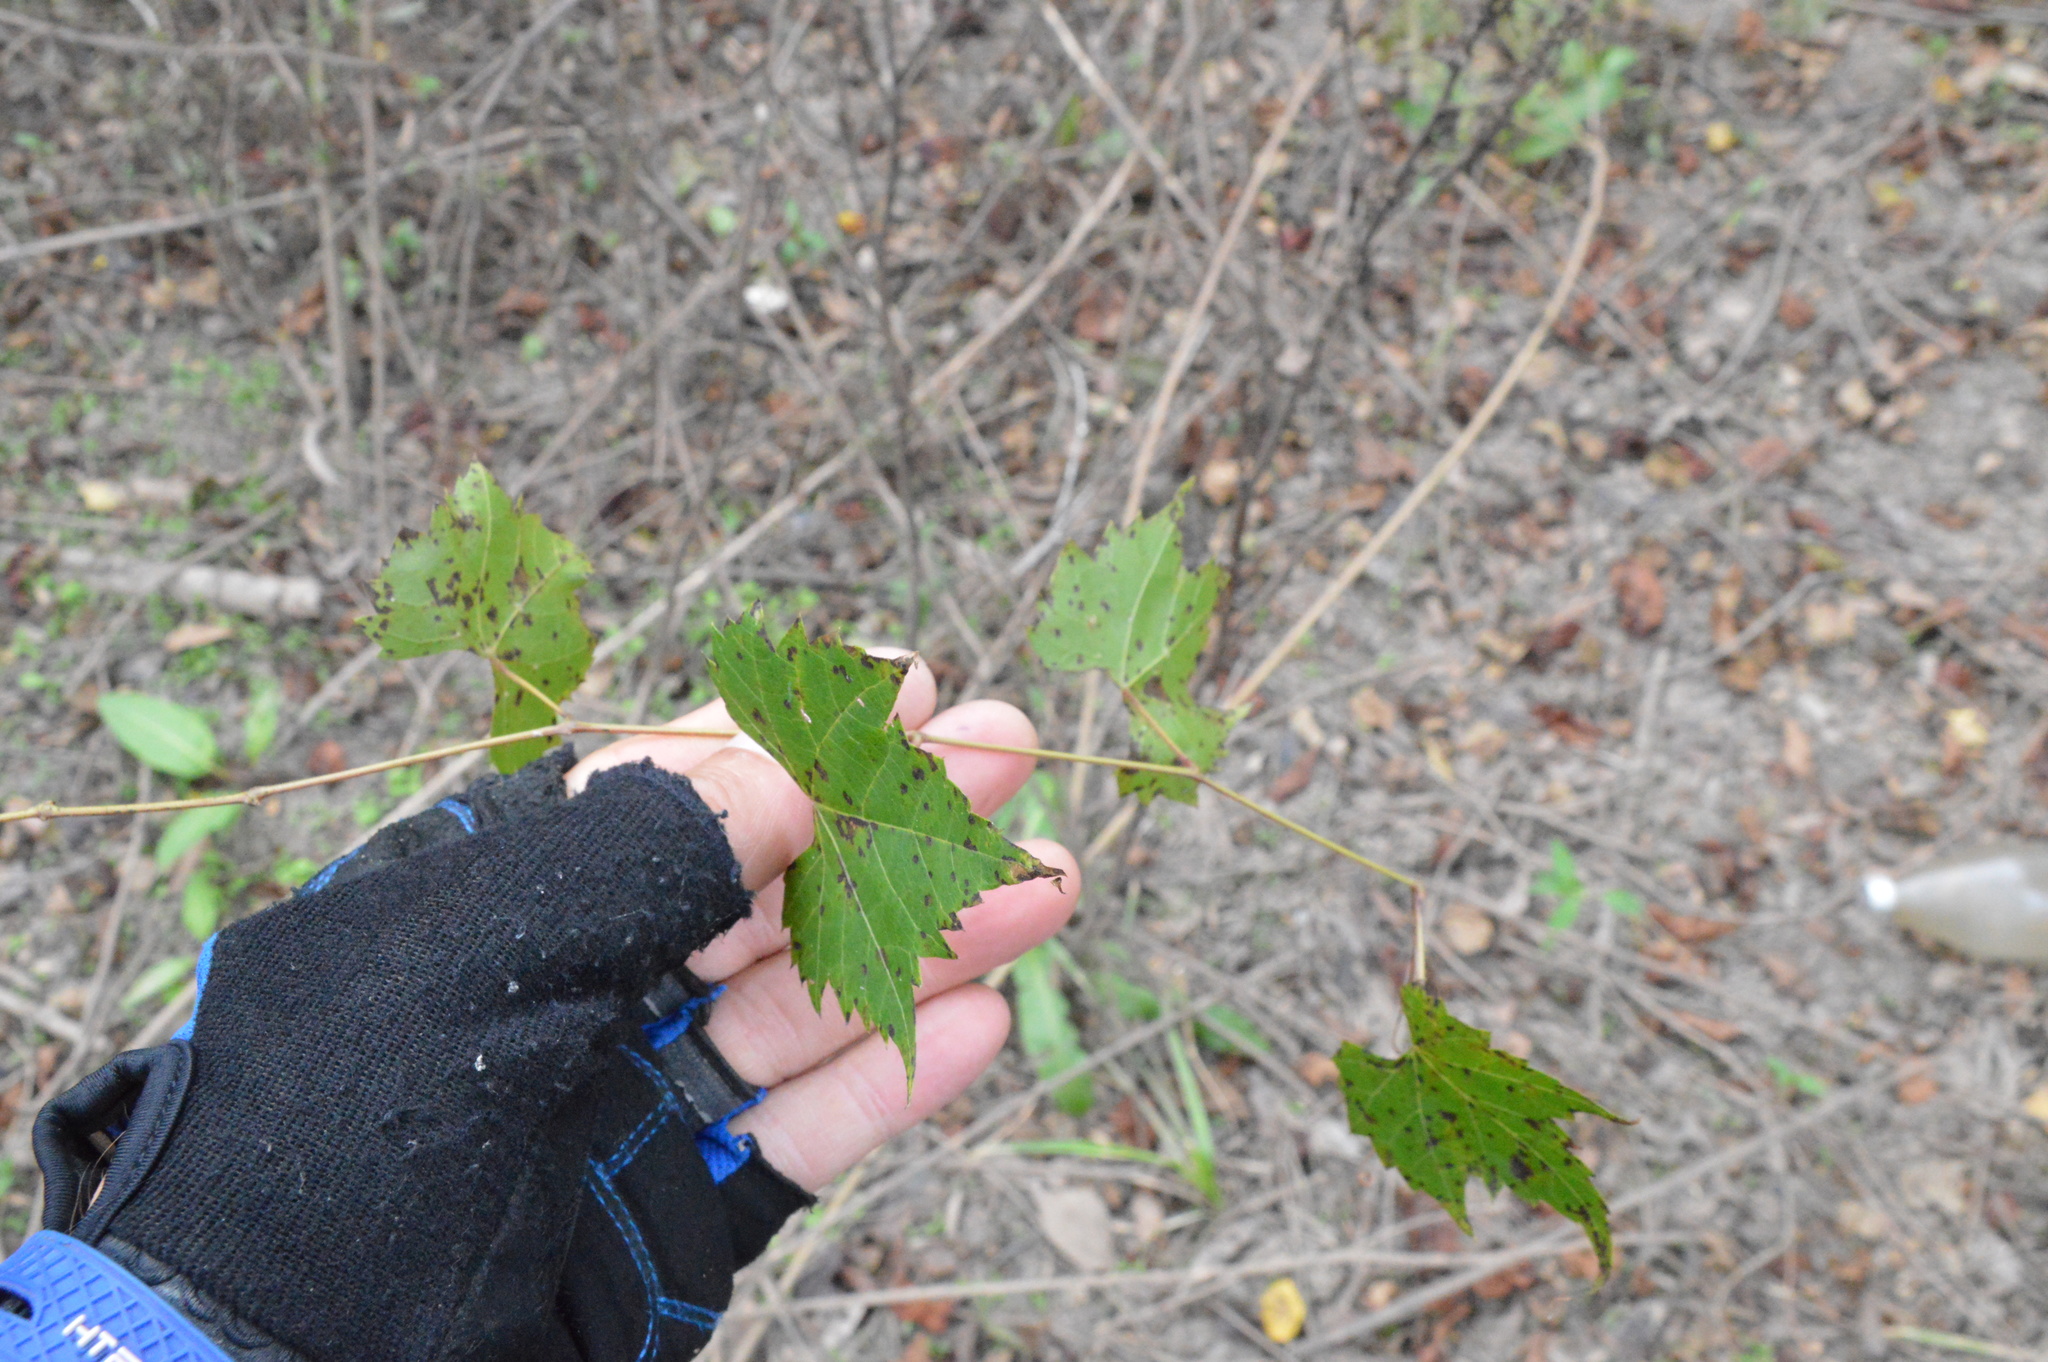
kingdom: Plantae
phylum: Tracheophyta
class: Magnoliopsida
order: Vitales
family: Vitaceae
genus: Vitis
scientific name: Vitis rotundifolia
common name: Muscadine grape
